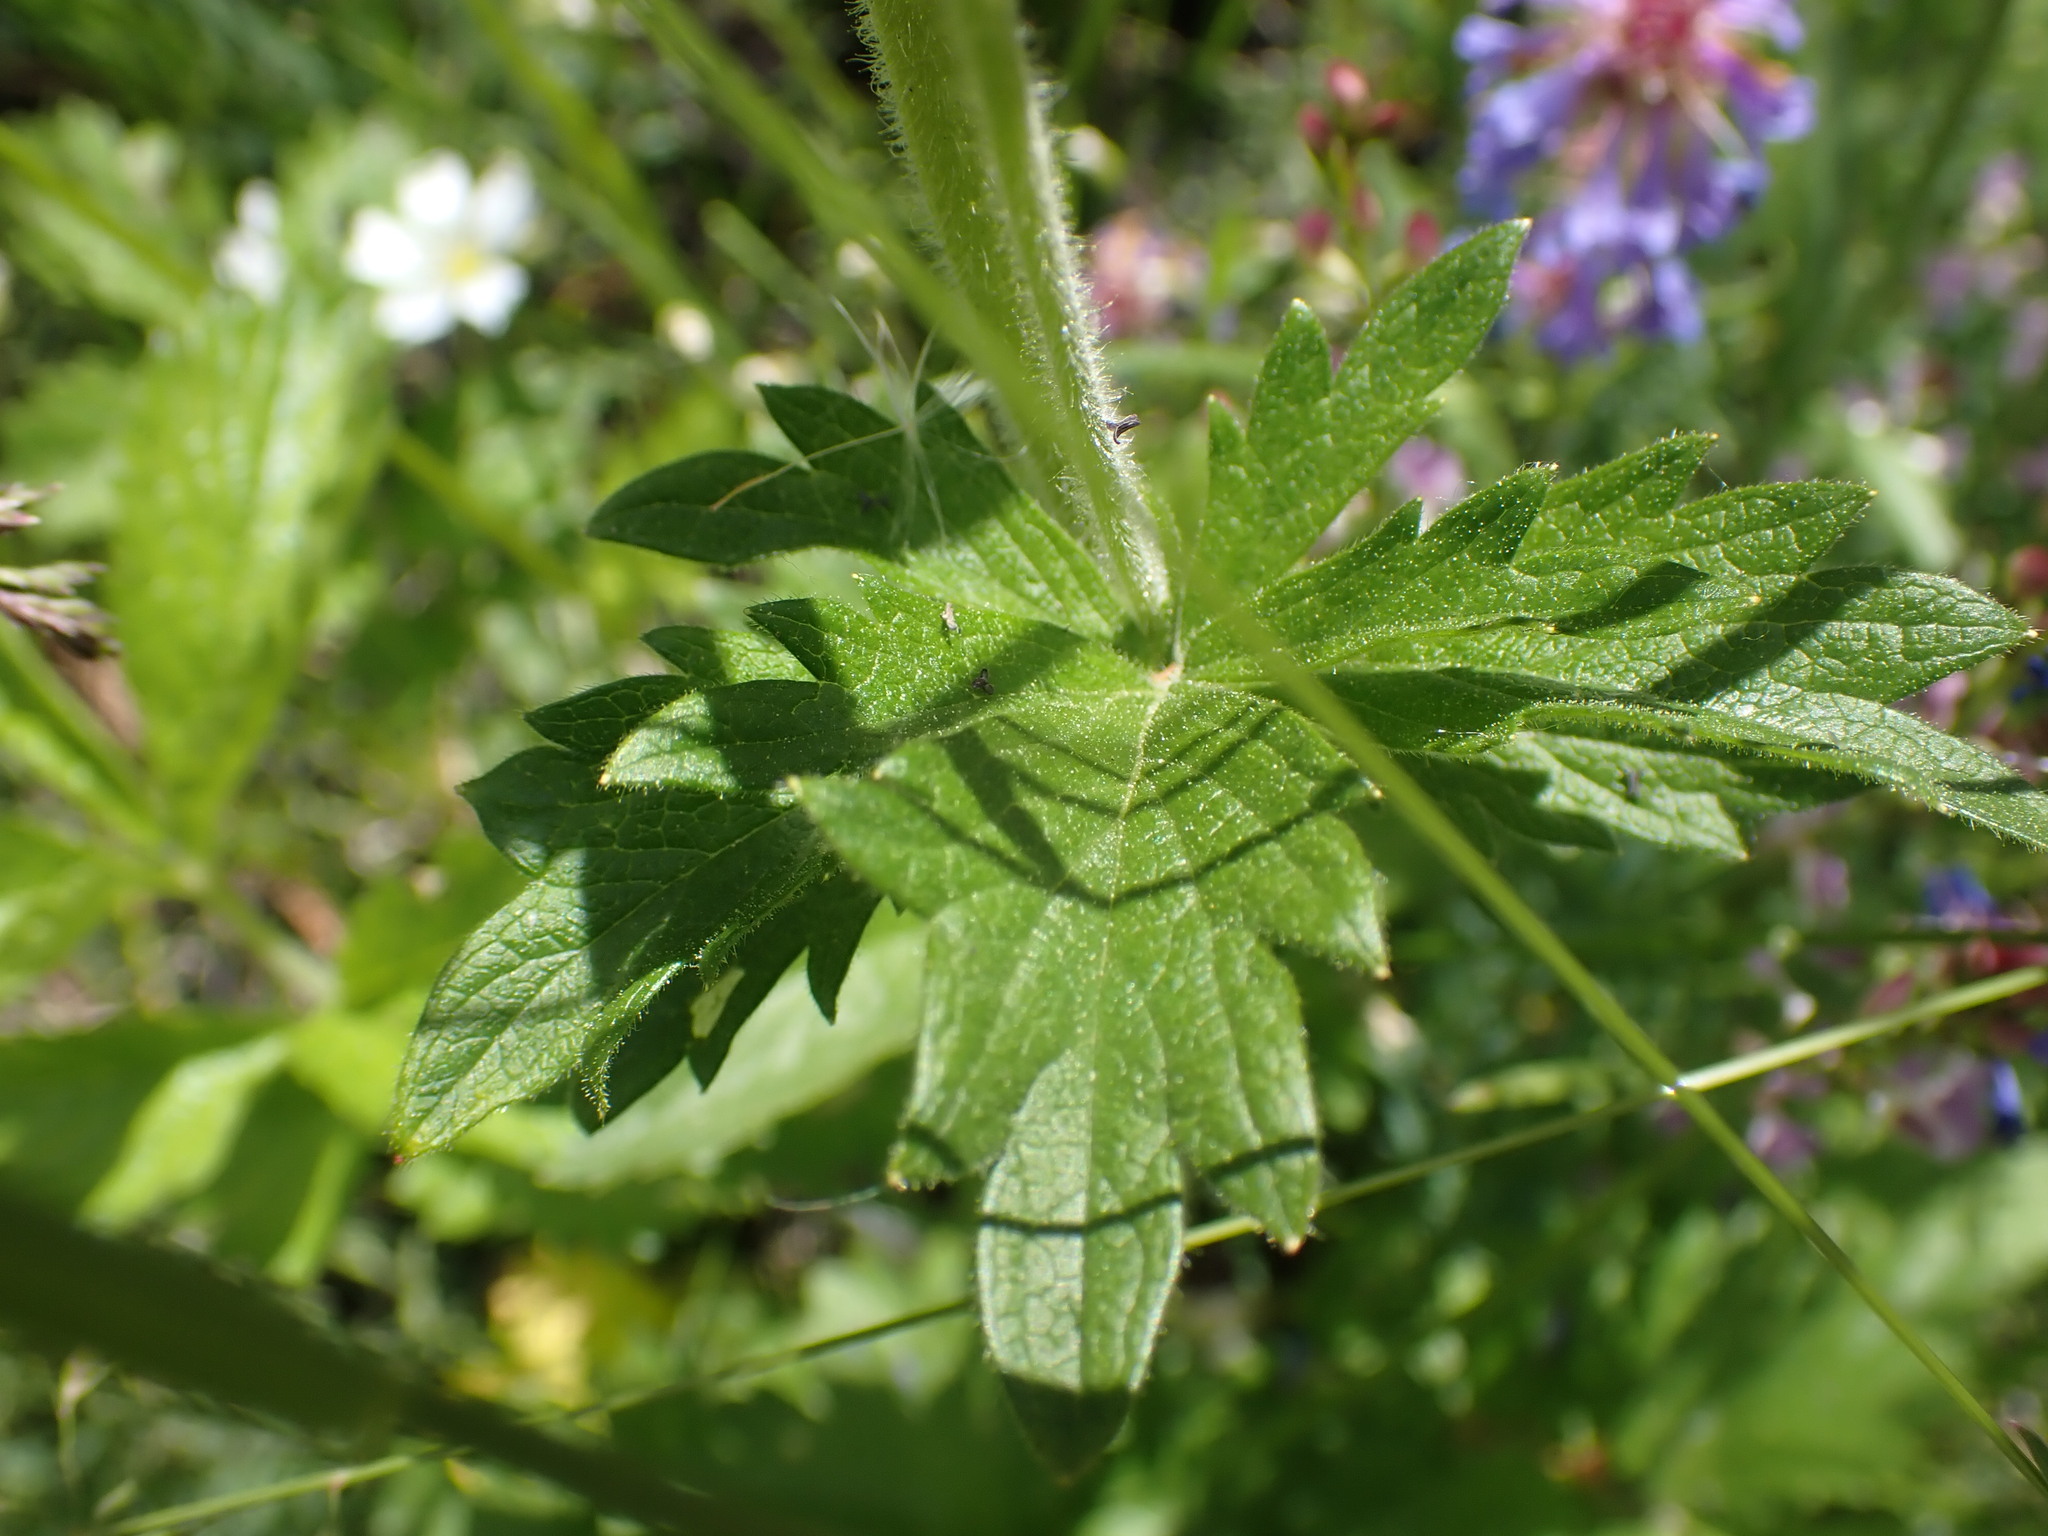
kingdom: Plantae
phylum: Tracheophyta
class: Magnoliopsida
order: Rosales
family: Rosaceae
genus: Drymocallis
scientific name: Drymocallis convallaria
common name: Cream cinquefoil
